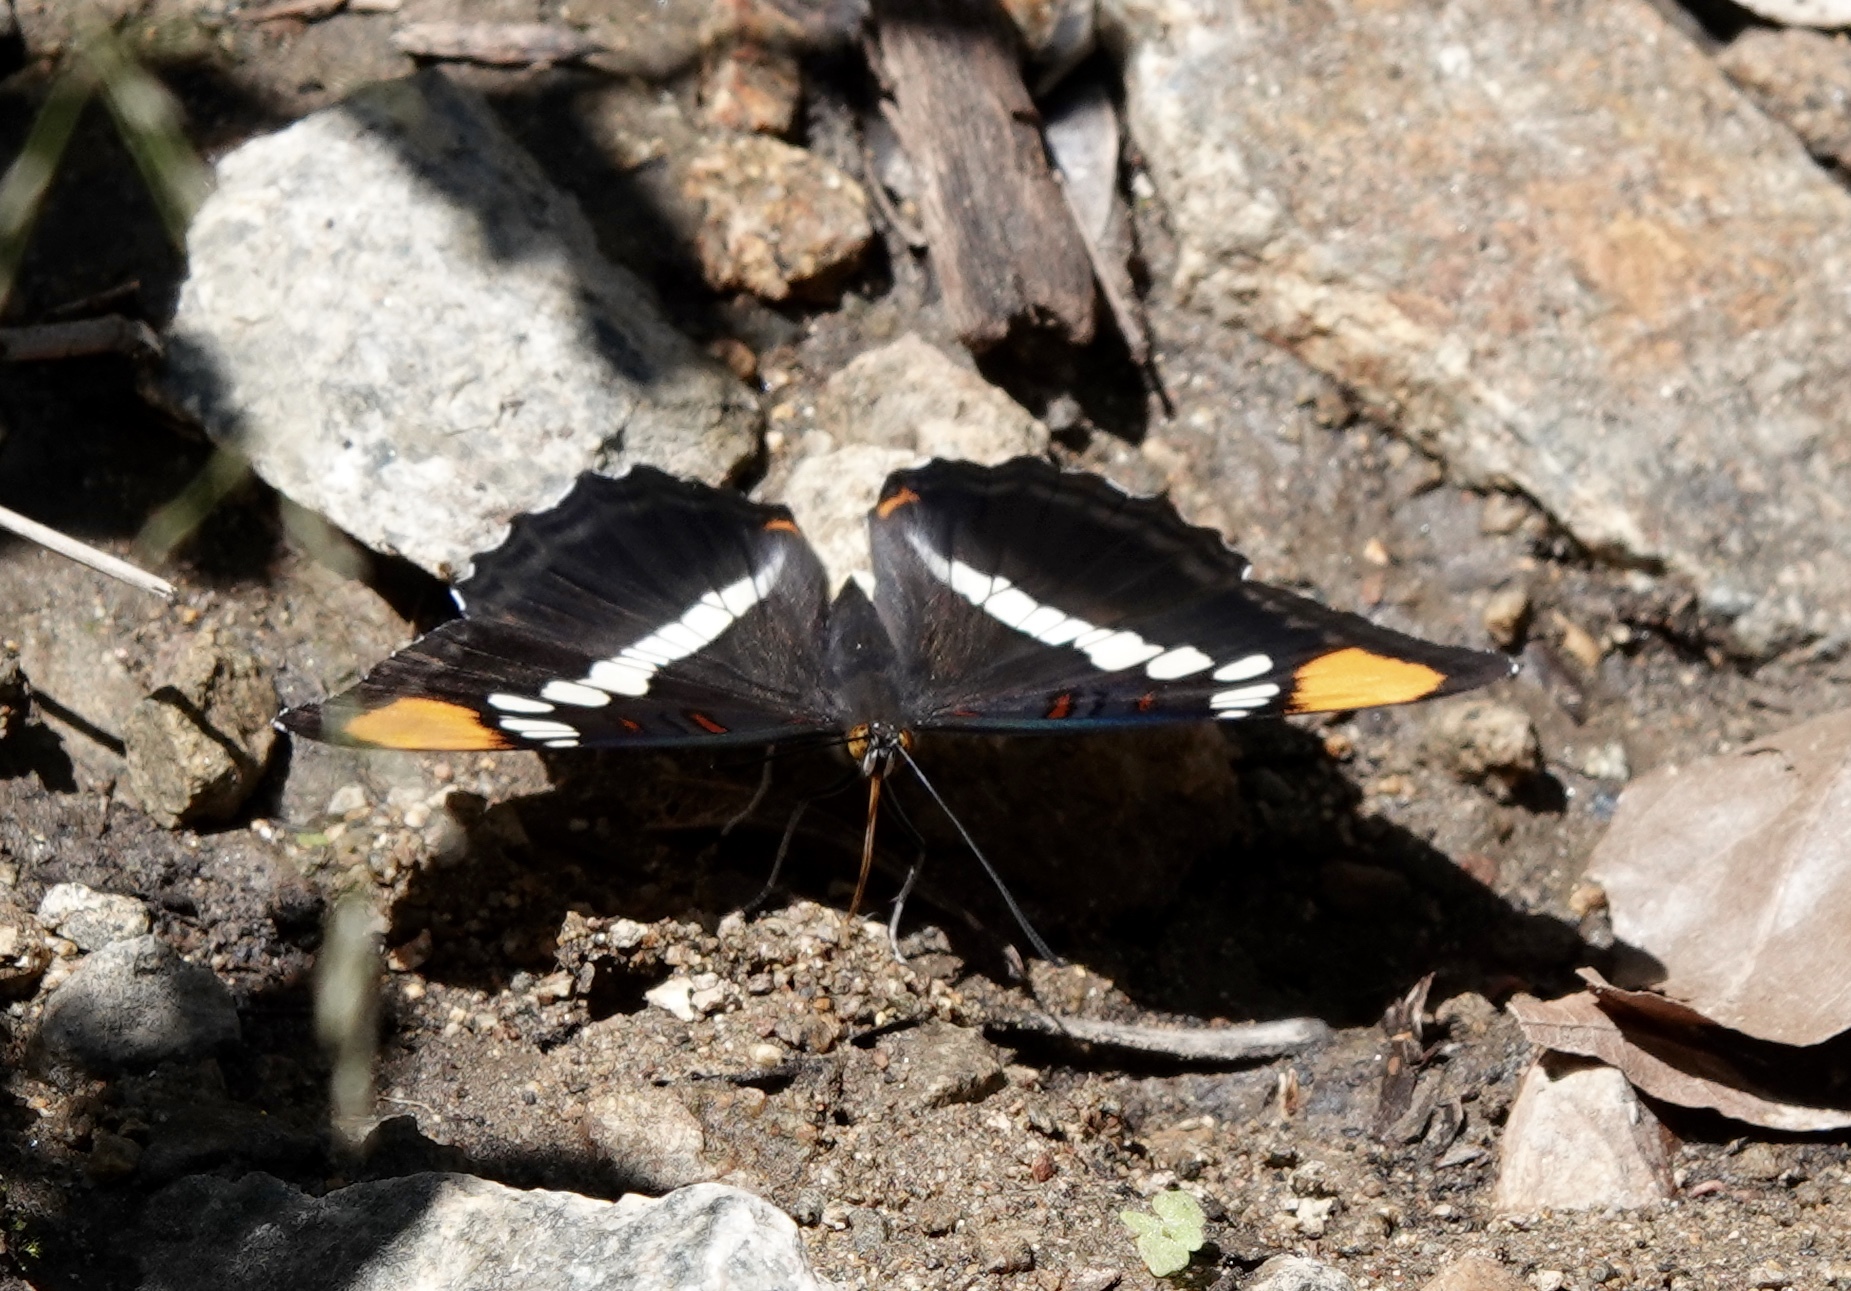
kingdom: Animalia
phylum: Arthropoda
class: Insecta
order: Lepidoptera
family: Nymphalidae
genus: Limenitis
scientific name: Limenitis bredowii
